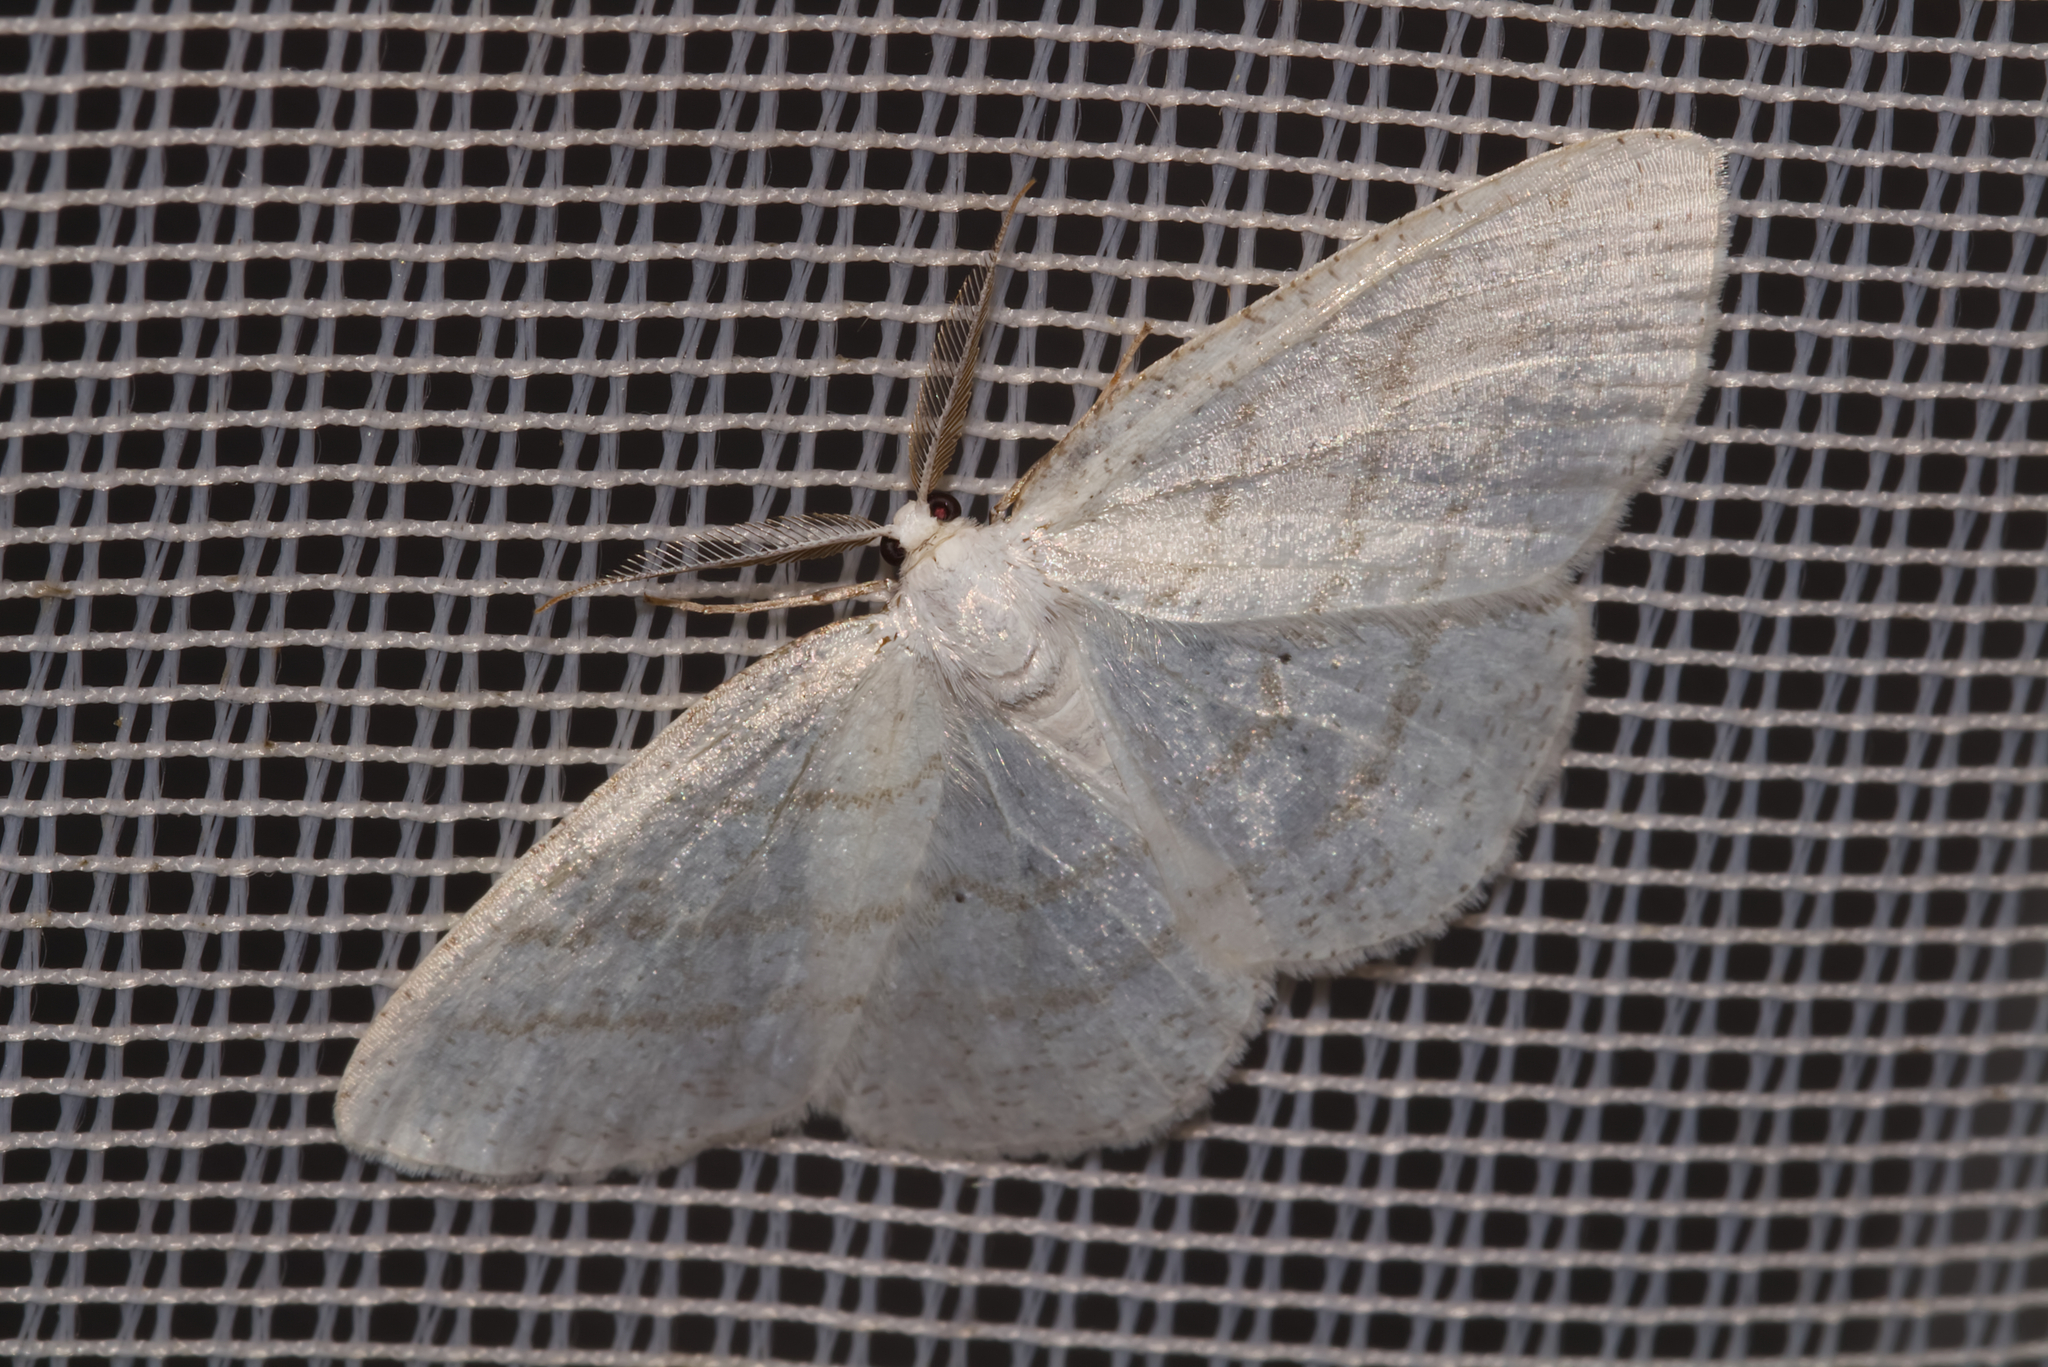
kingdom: Animalia
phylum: Arthropoda
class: Insecta
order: Lepidoptera
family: Geometridae
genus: Cabera
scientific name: Cabera pusaria
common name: Common white wave
